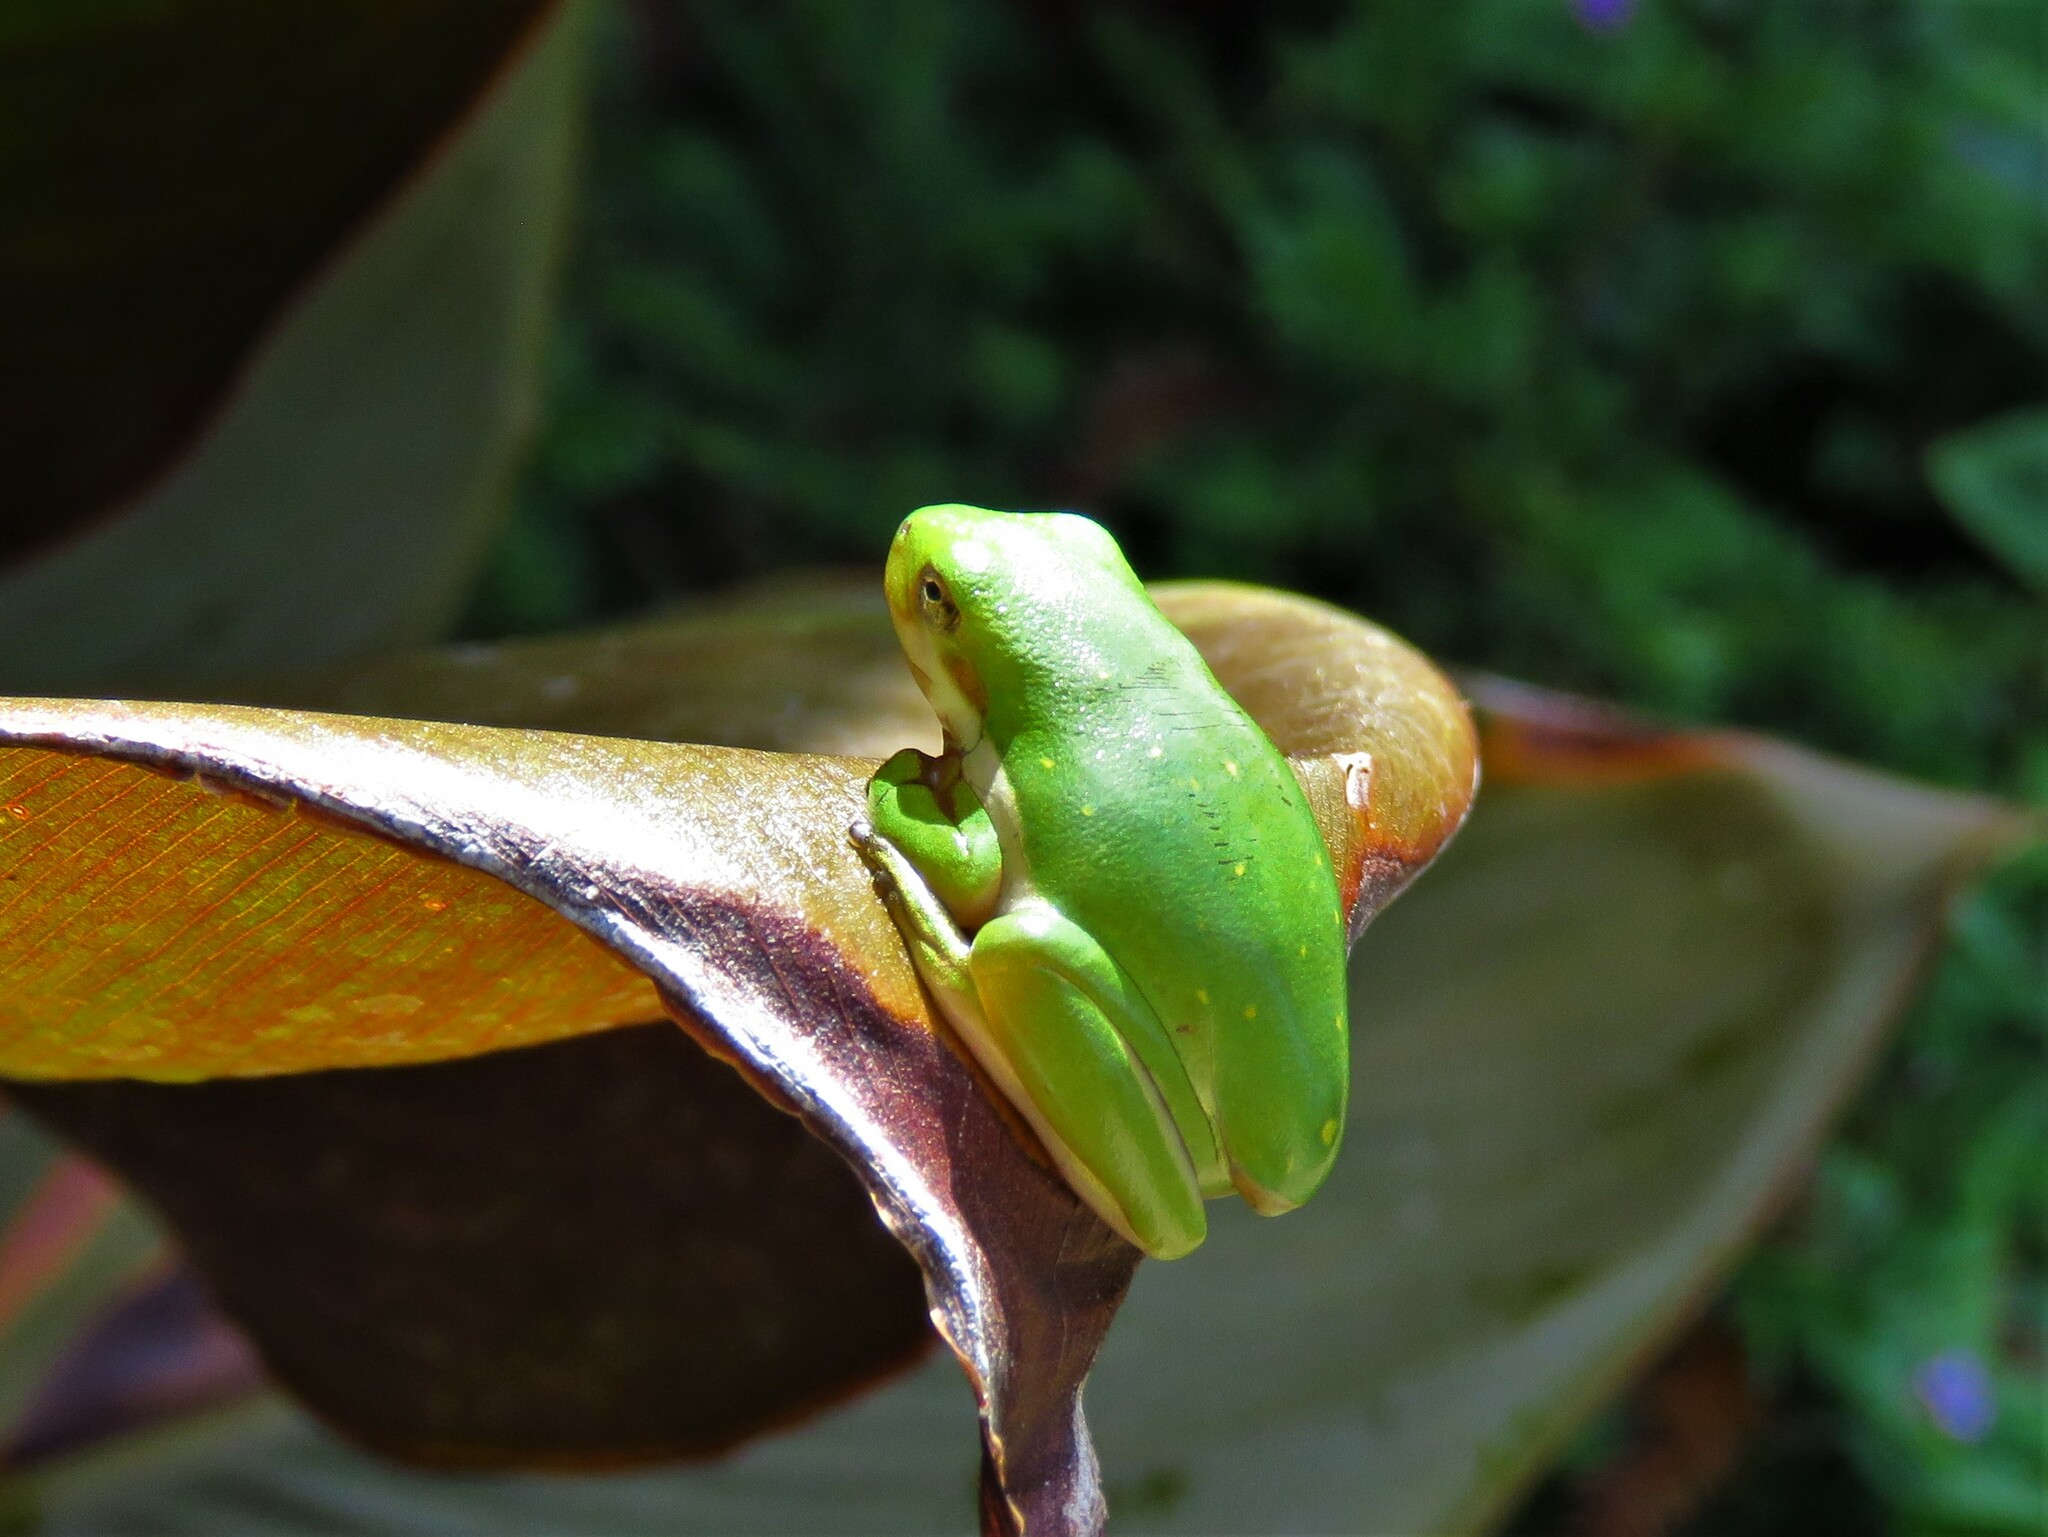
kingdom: Animalia
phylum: Chordata
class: Amphibia
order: Anura
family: Hylidae
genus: Dryophytes
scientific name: Dryophytes cinereus
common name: Green treefrog
